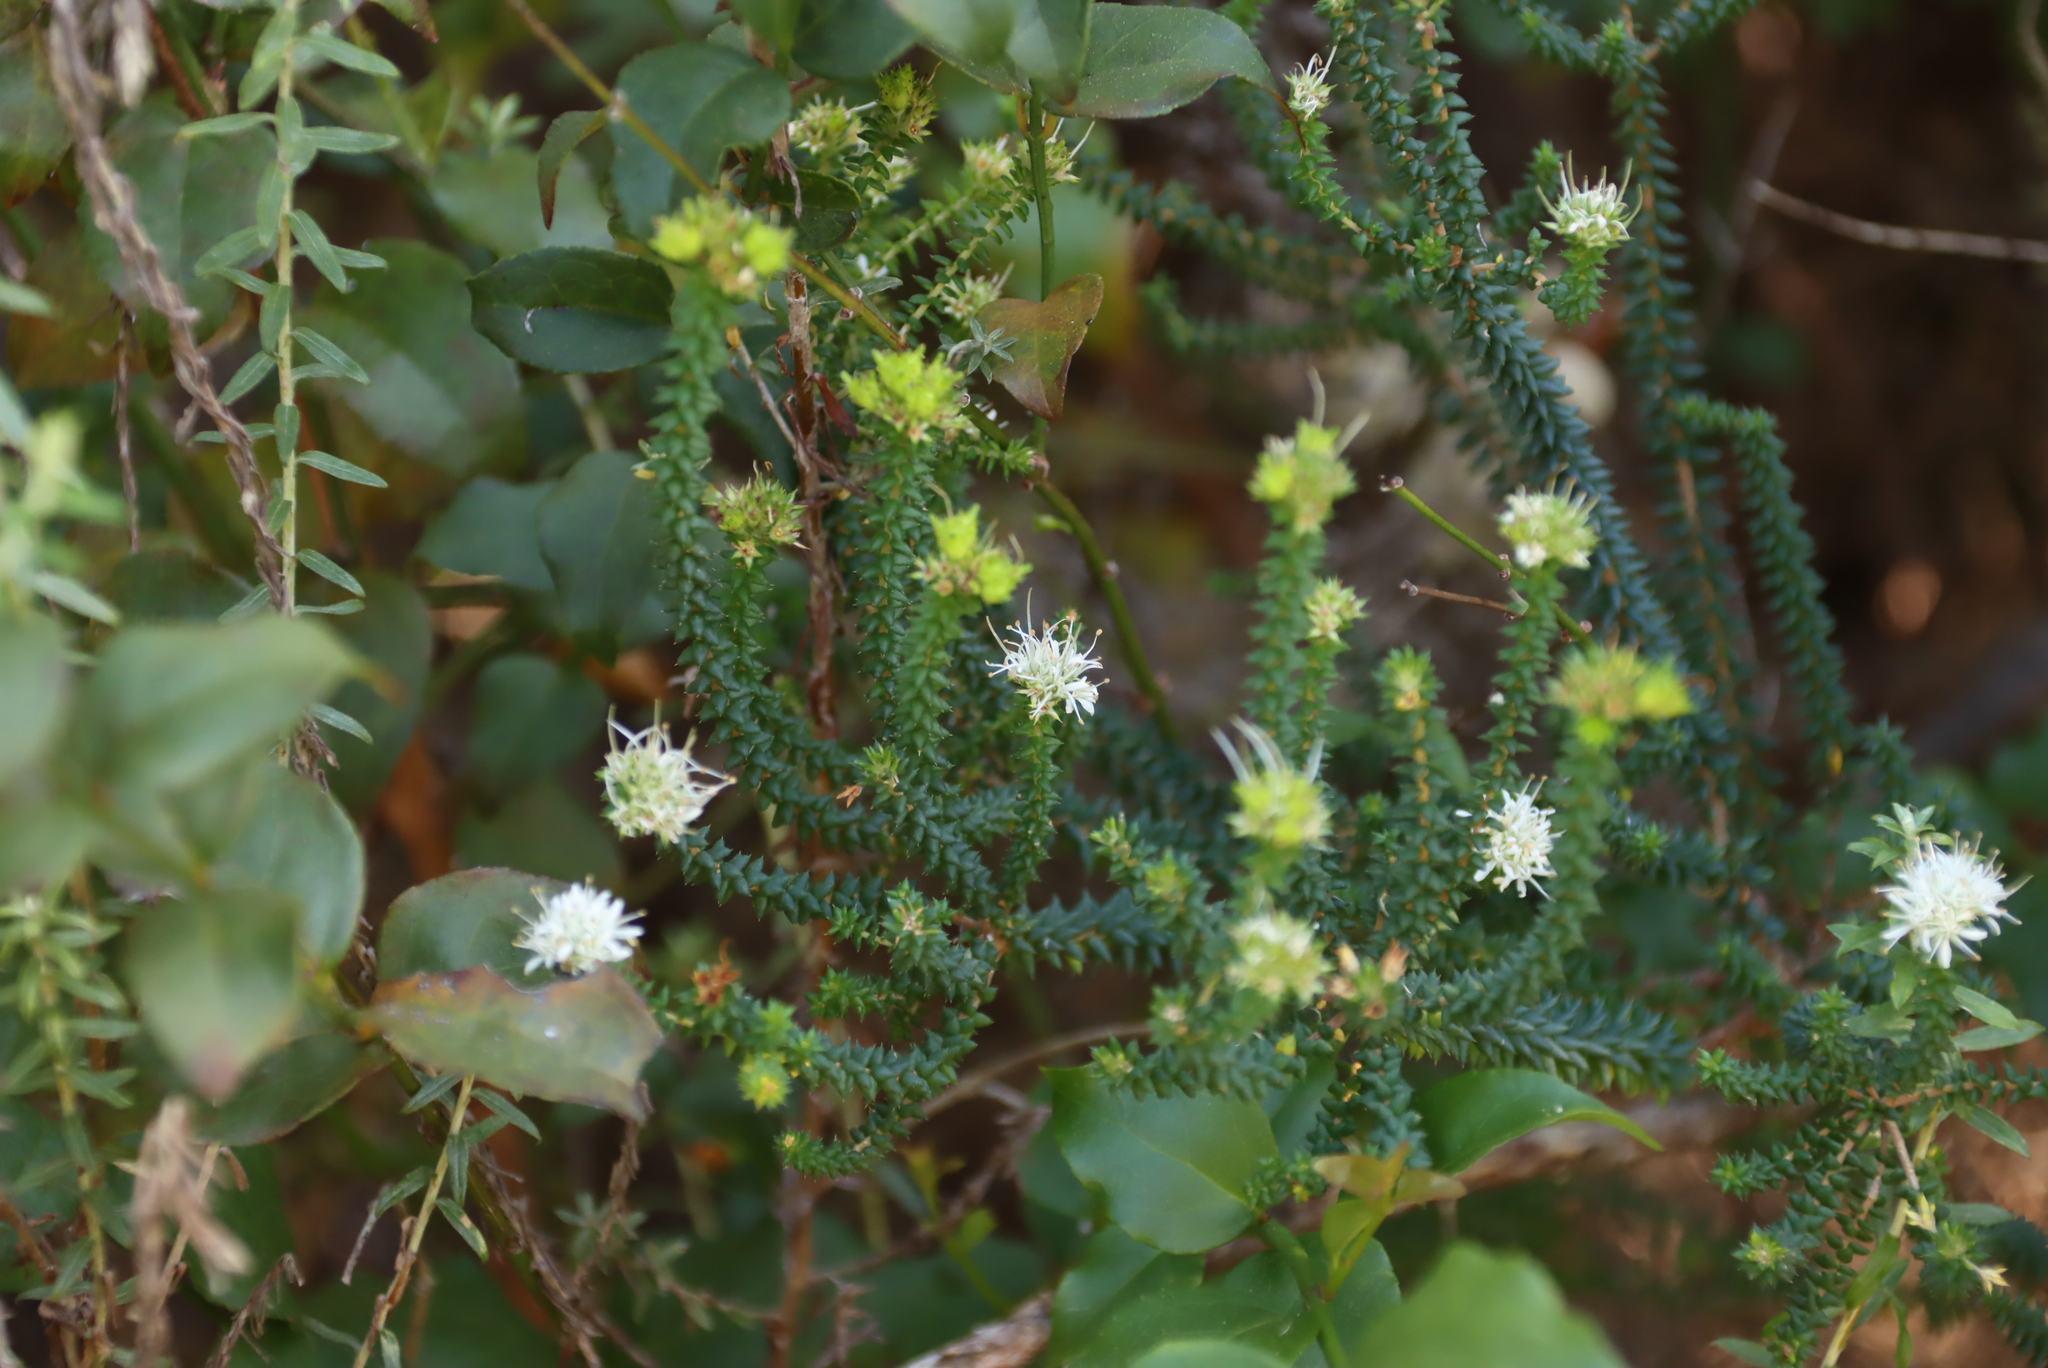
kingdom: Plantae
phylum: Tracheophyta
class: Magnoliopsida
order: Sapindales
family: Rutaceae
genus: Agathosma
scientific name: Agathosma apiculata
